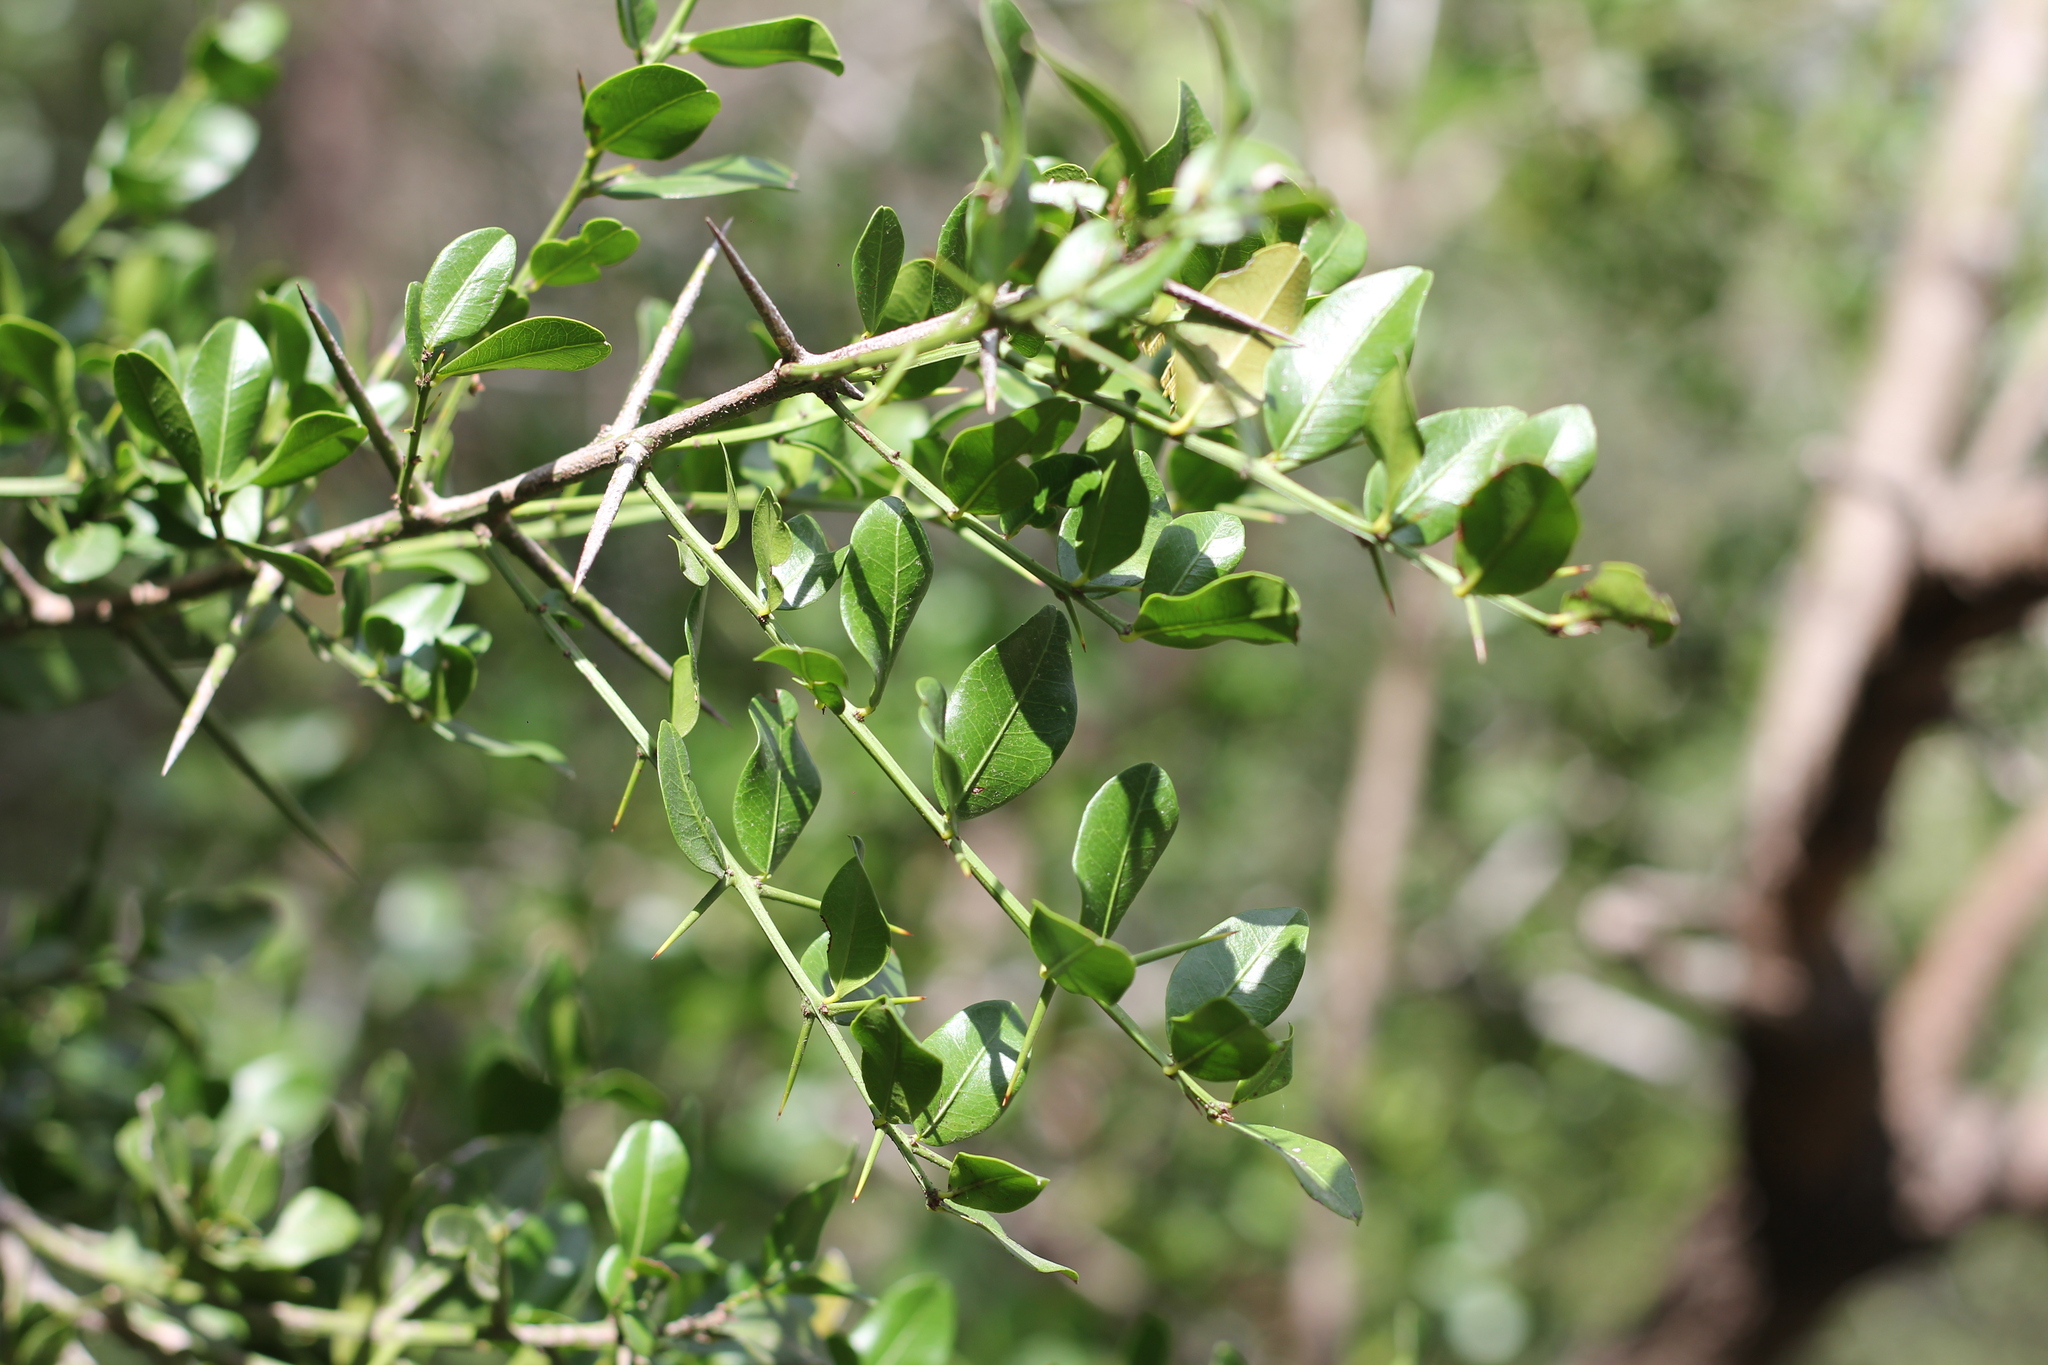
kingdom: Plantae
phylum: Tracheophyta
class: Magnoliopsida
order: Rosales
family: Rhamnaceae
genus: Scutia
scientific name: Scutia buxifolia
